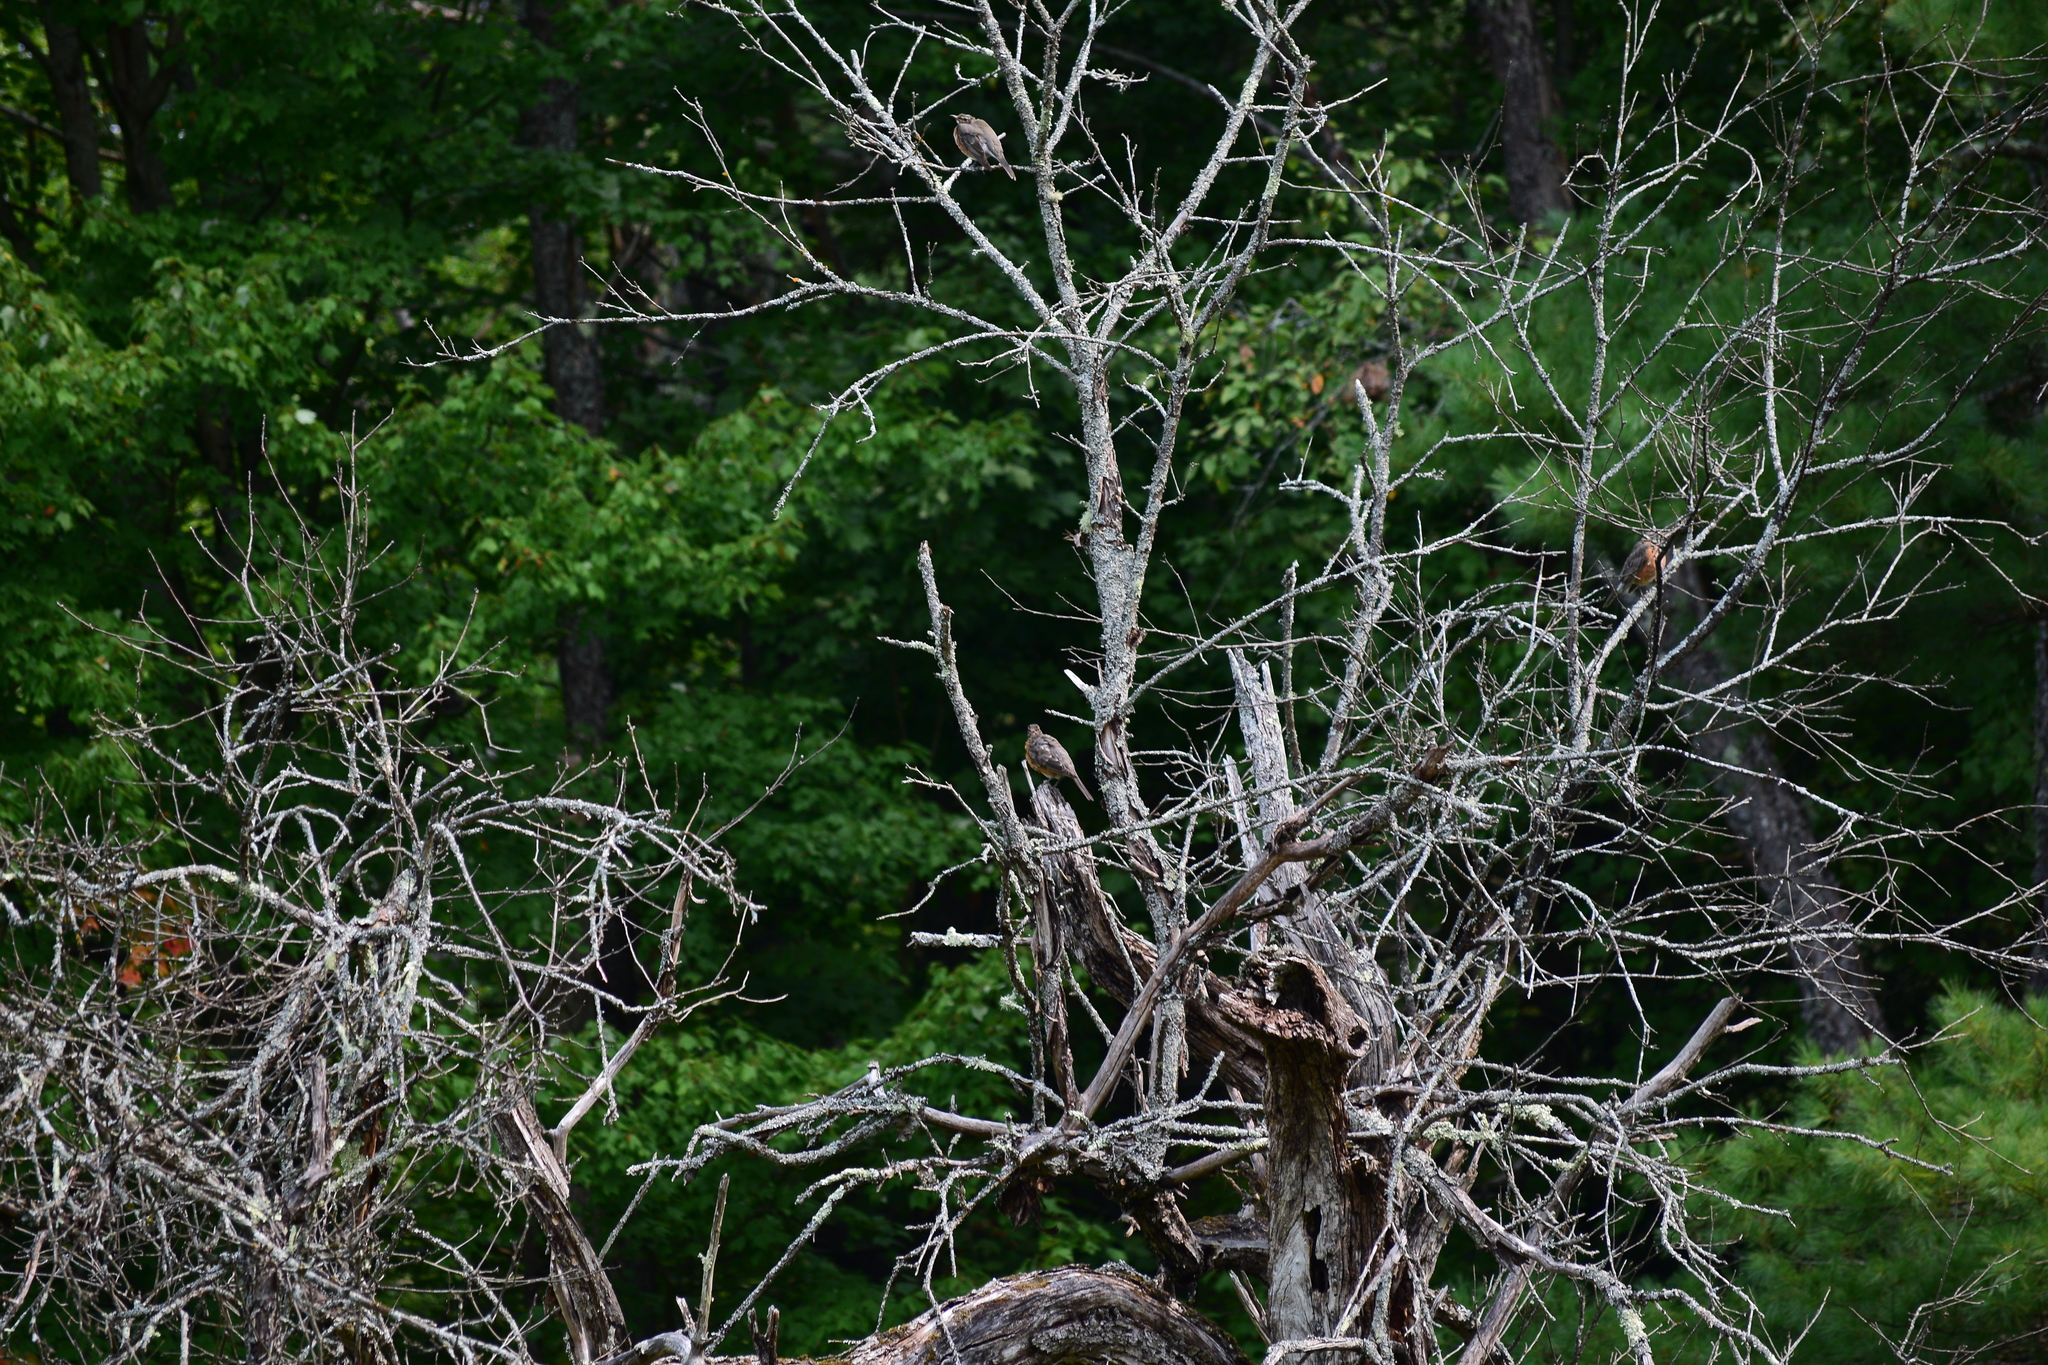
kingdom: Animalia
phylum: Chordata
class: Aves
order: Passeriformes
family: Turdidae
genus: Turdus
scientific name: Turdus migratorius
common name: American robin
